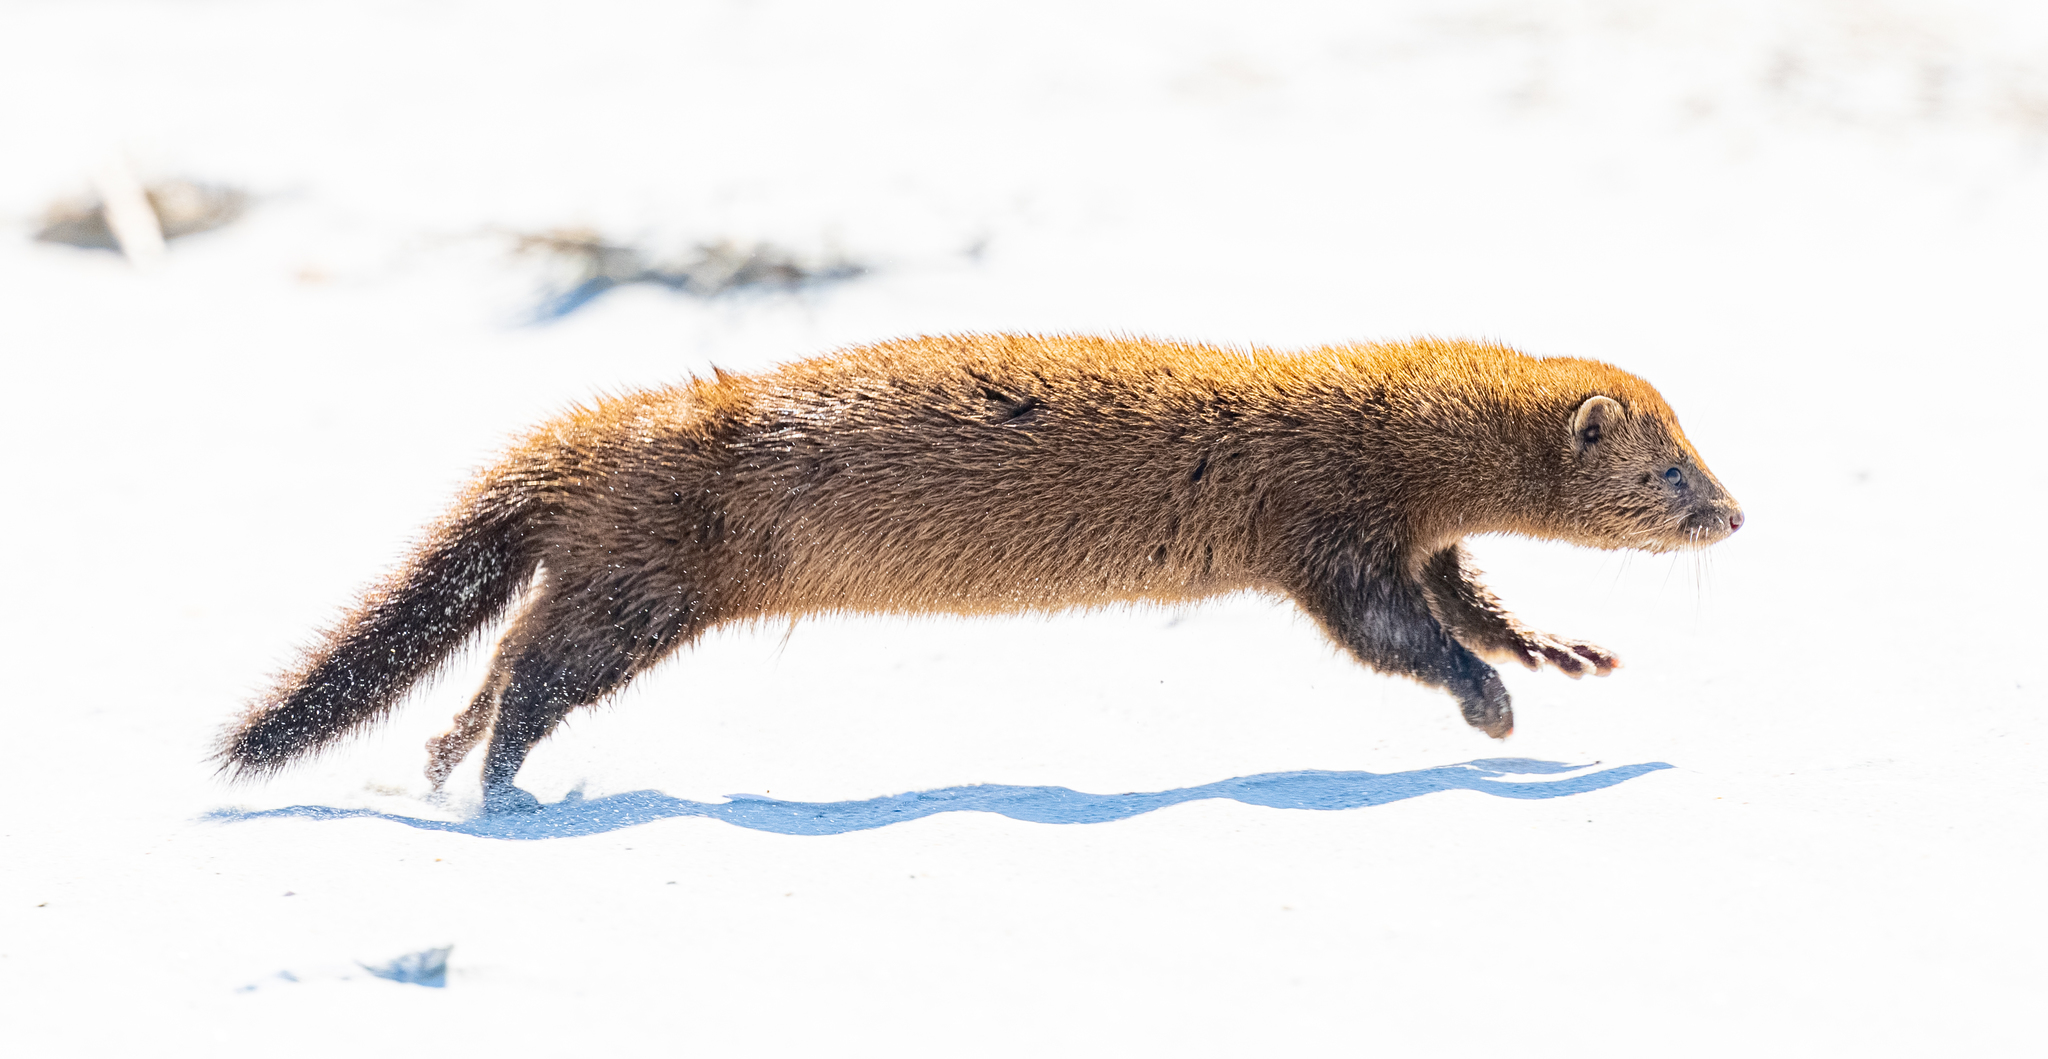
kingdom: Animalia
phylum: Chordata
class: Mammalia
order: Carnivora
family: Mustelidae
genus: Mustela
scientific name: Mustela
